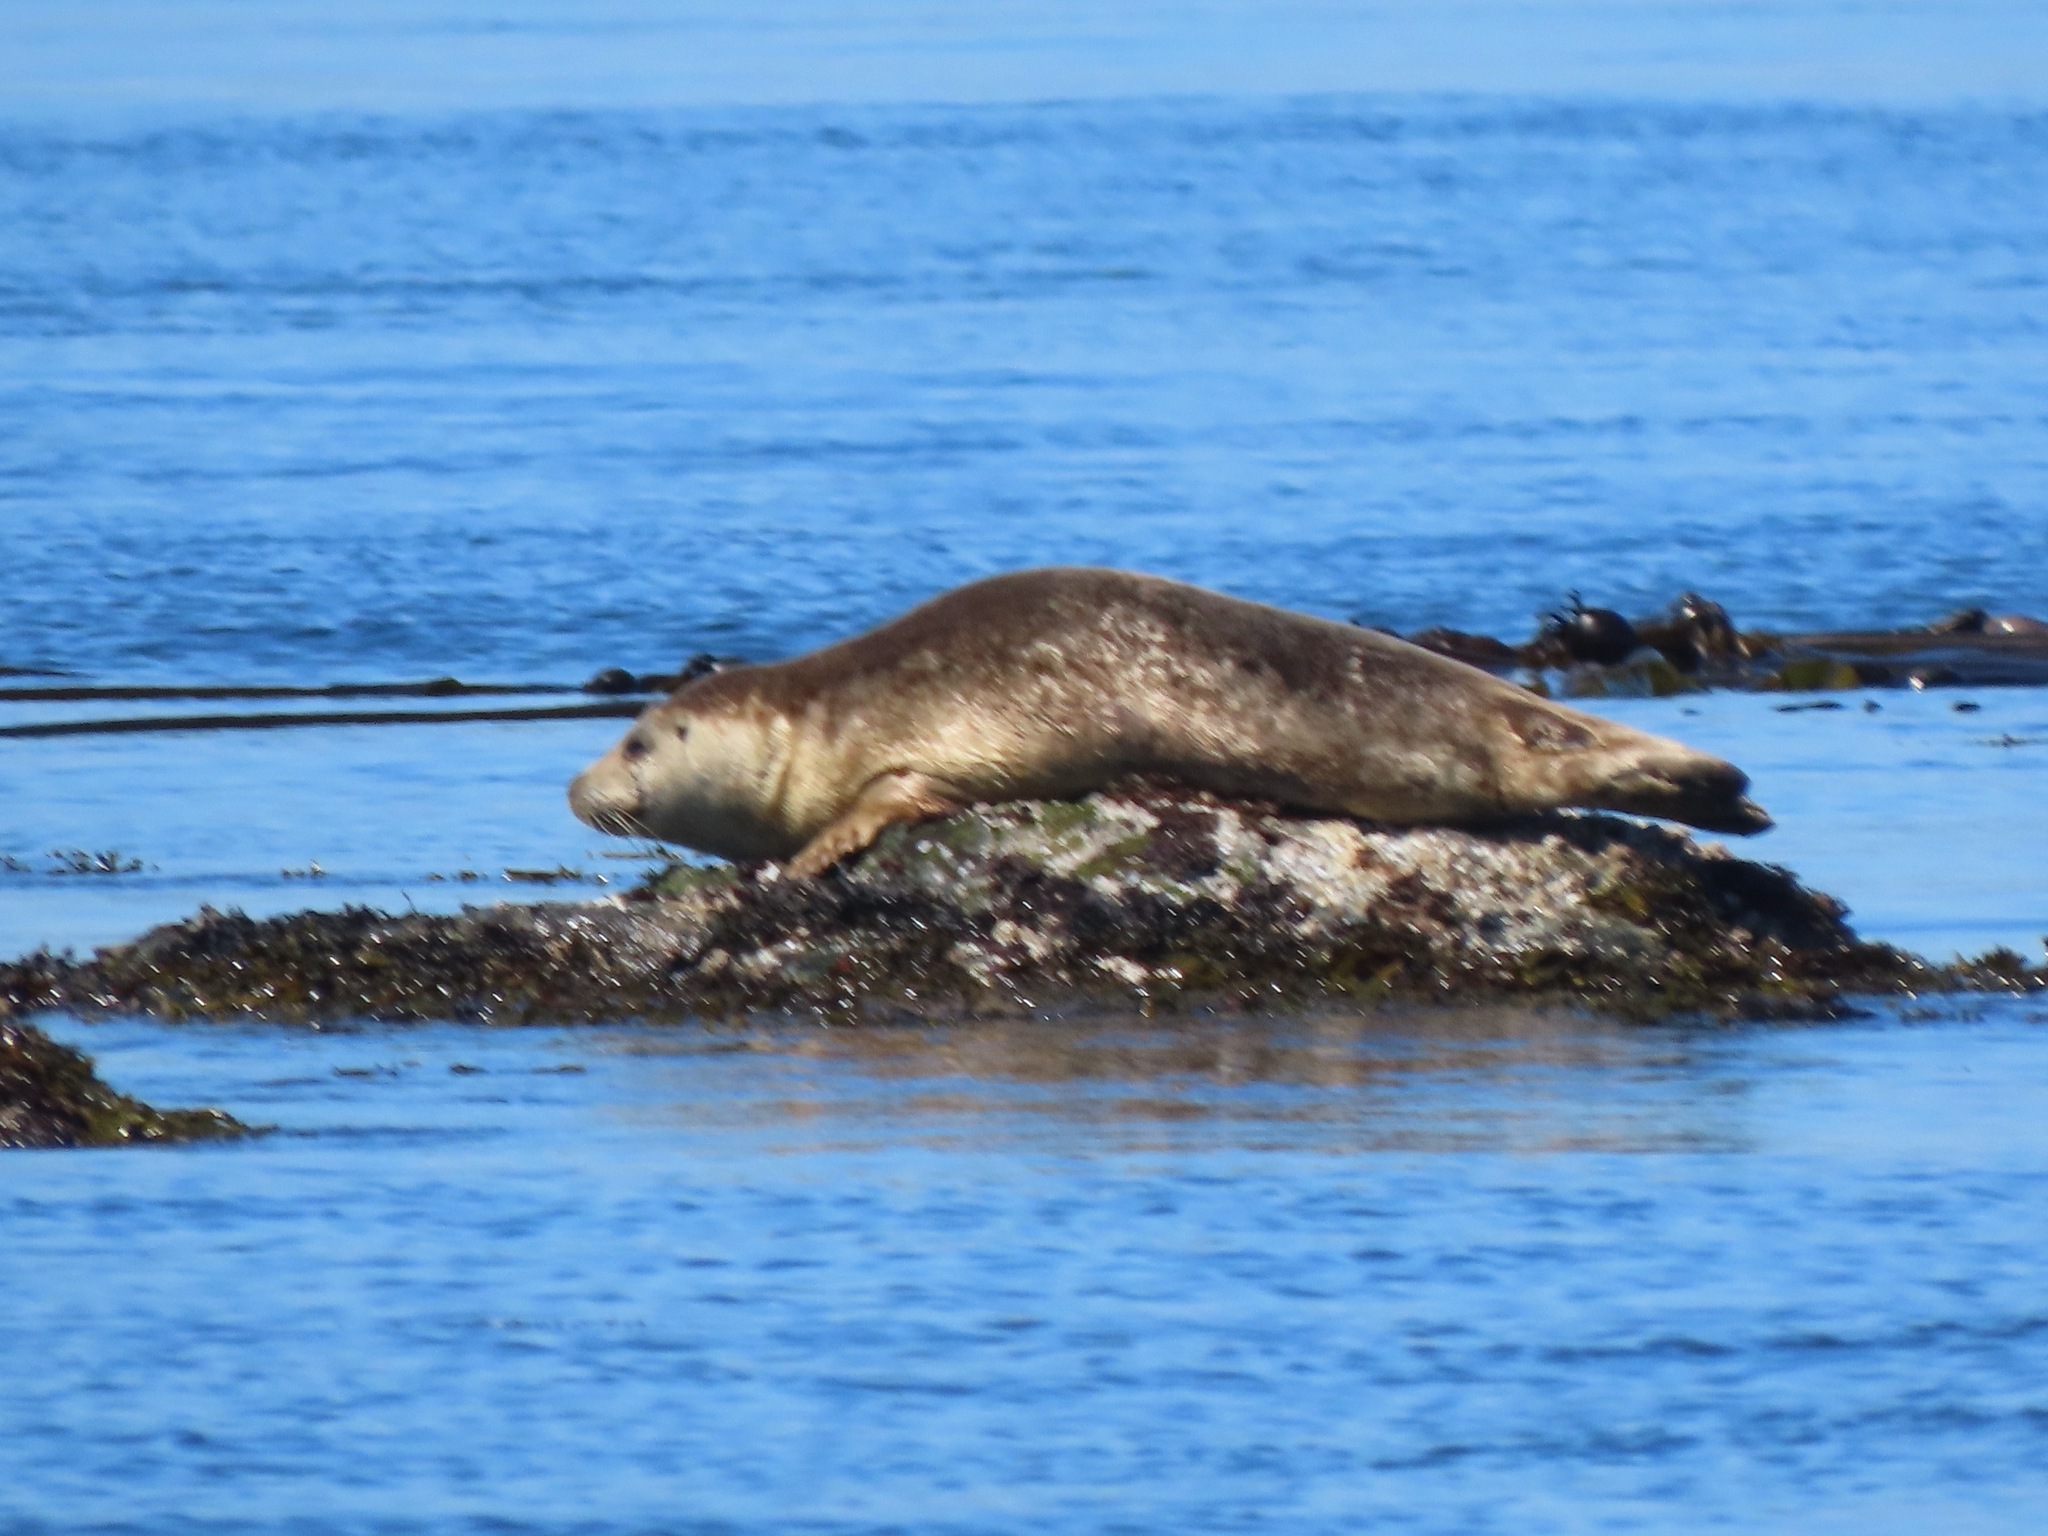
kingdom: Animalia
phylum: Chordata
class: Mammalia
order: Carnivora
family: Phocidae
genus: Phoca
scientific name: Phoca vitulina
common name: Harbor seal
